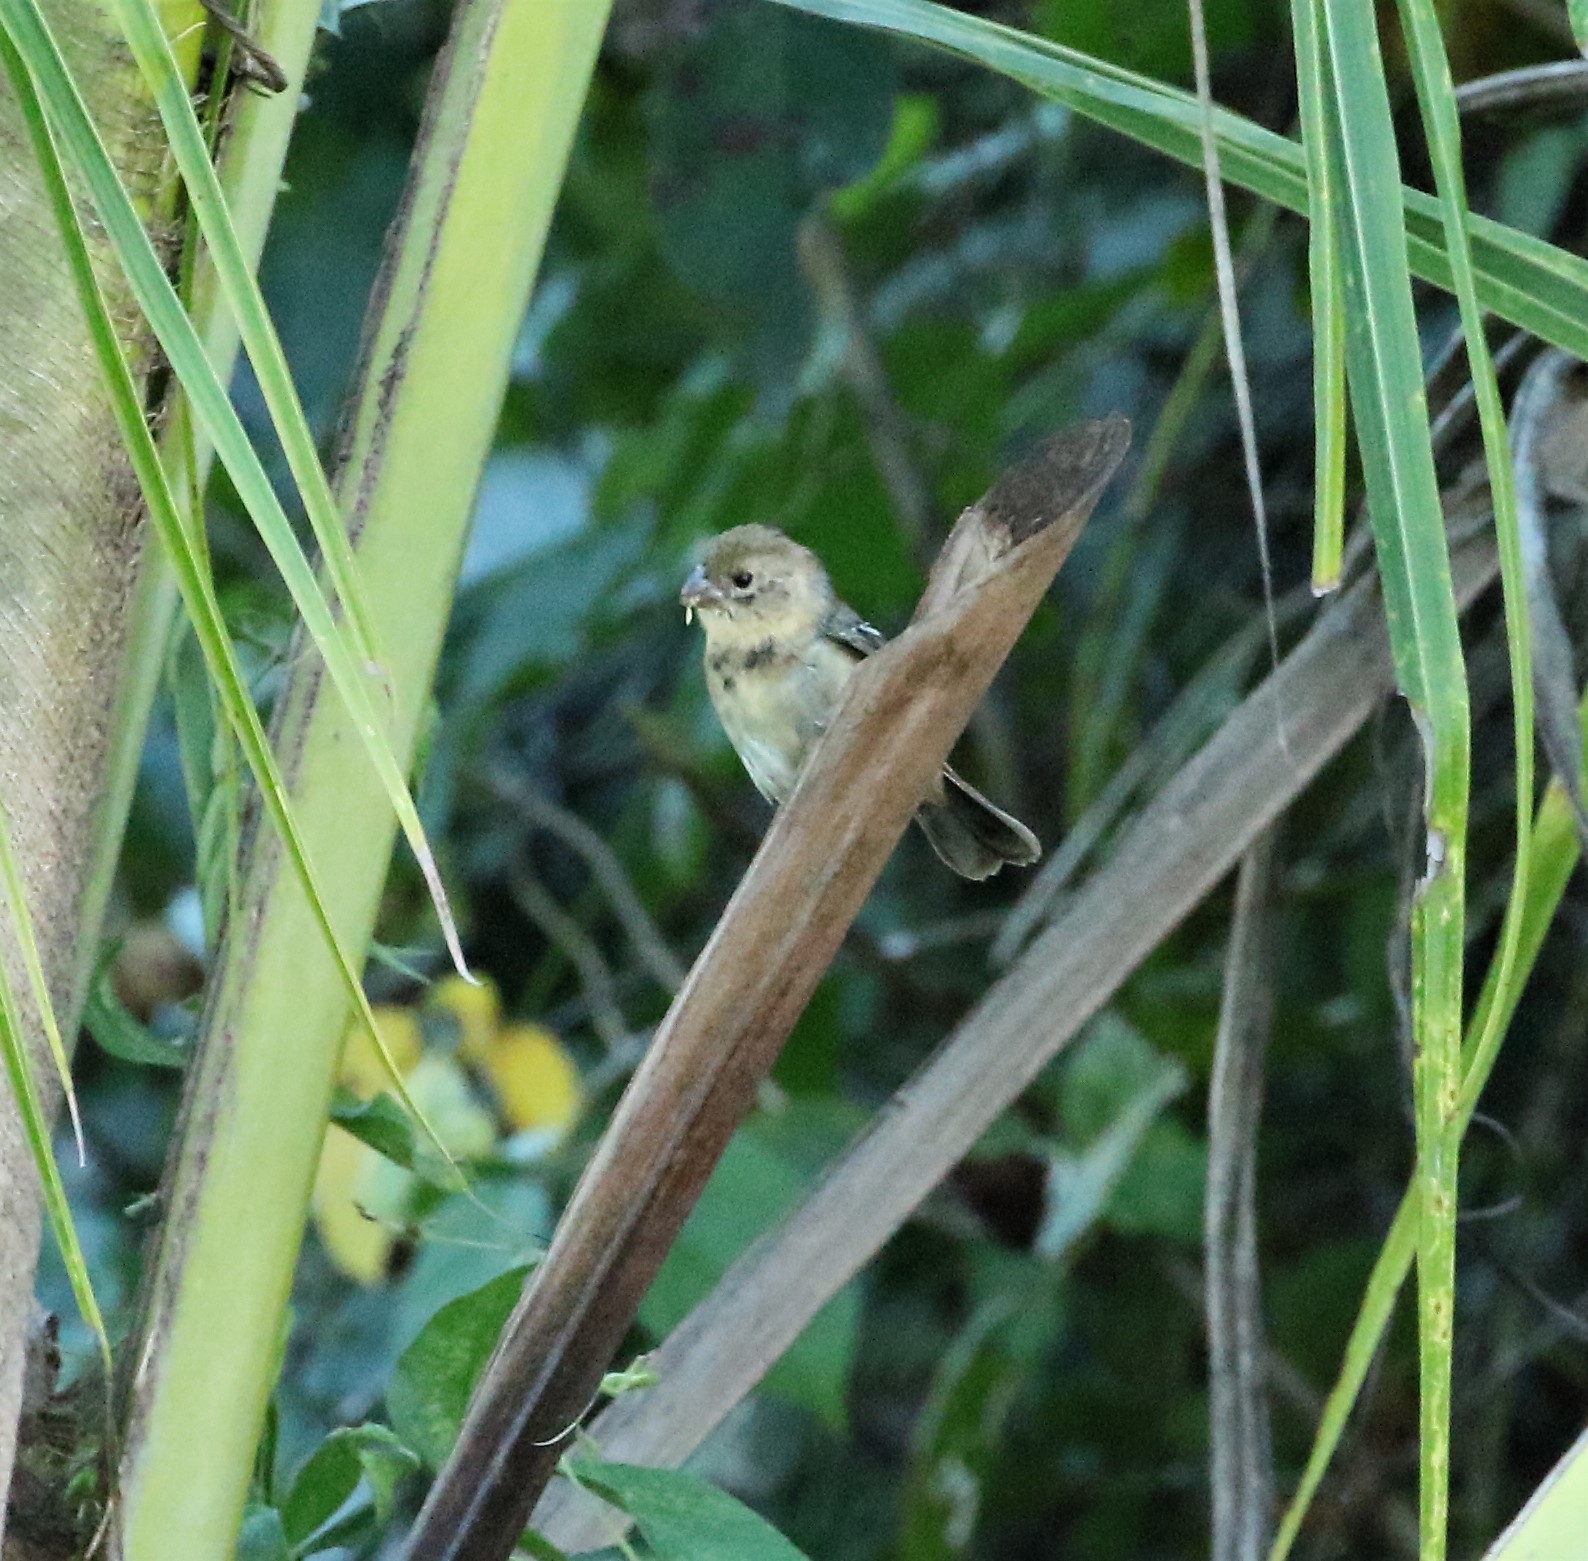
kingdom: Animalia
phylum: Chordata
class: Aves
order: Passeriformes
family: Thraupidae
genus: Sporophila
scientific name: Sporophila morelleti
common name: Morelet's seedeater
